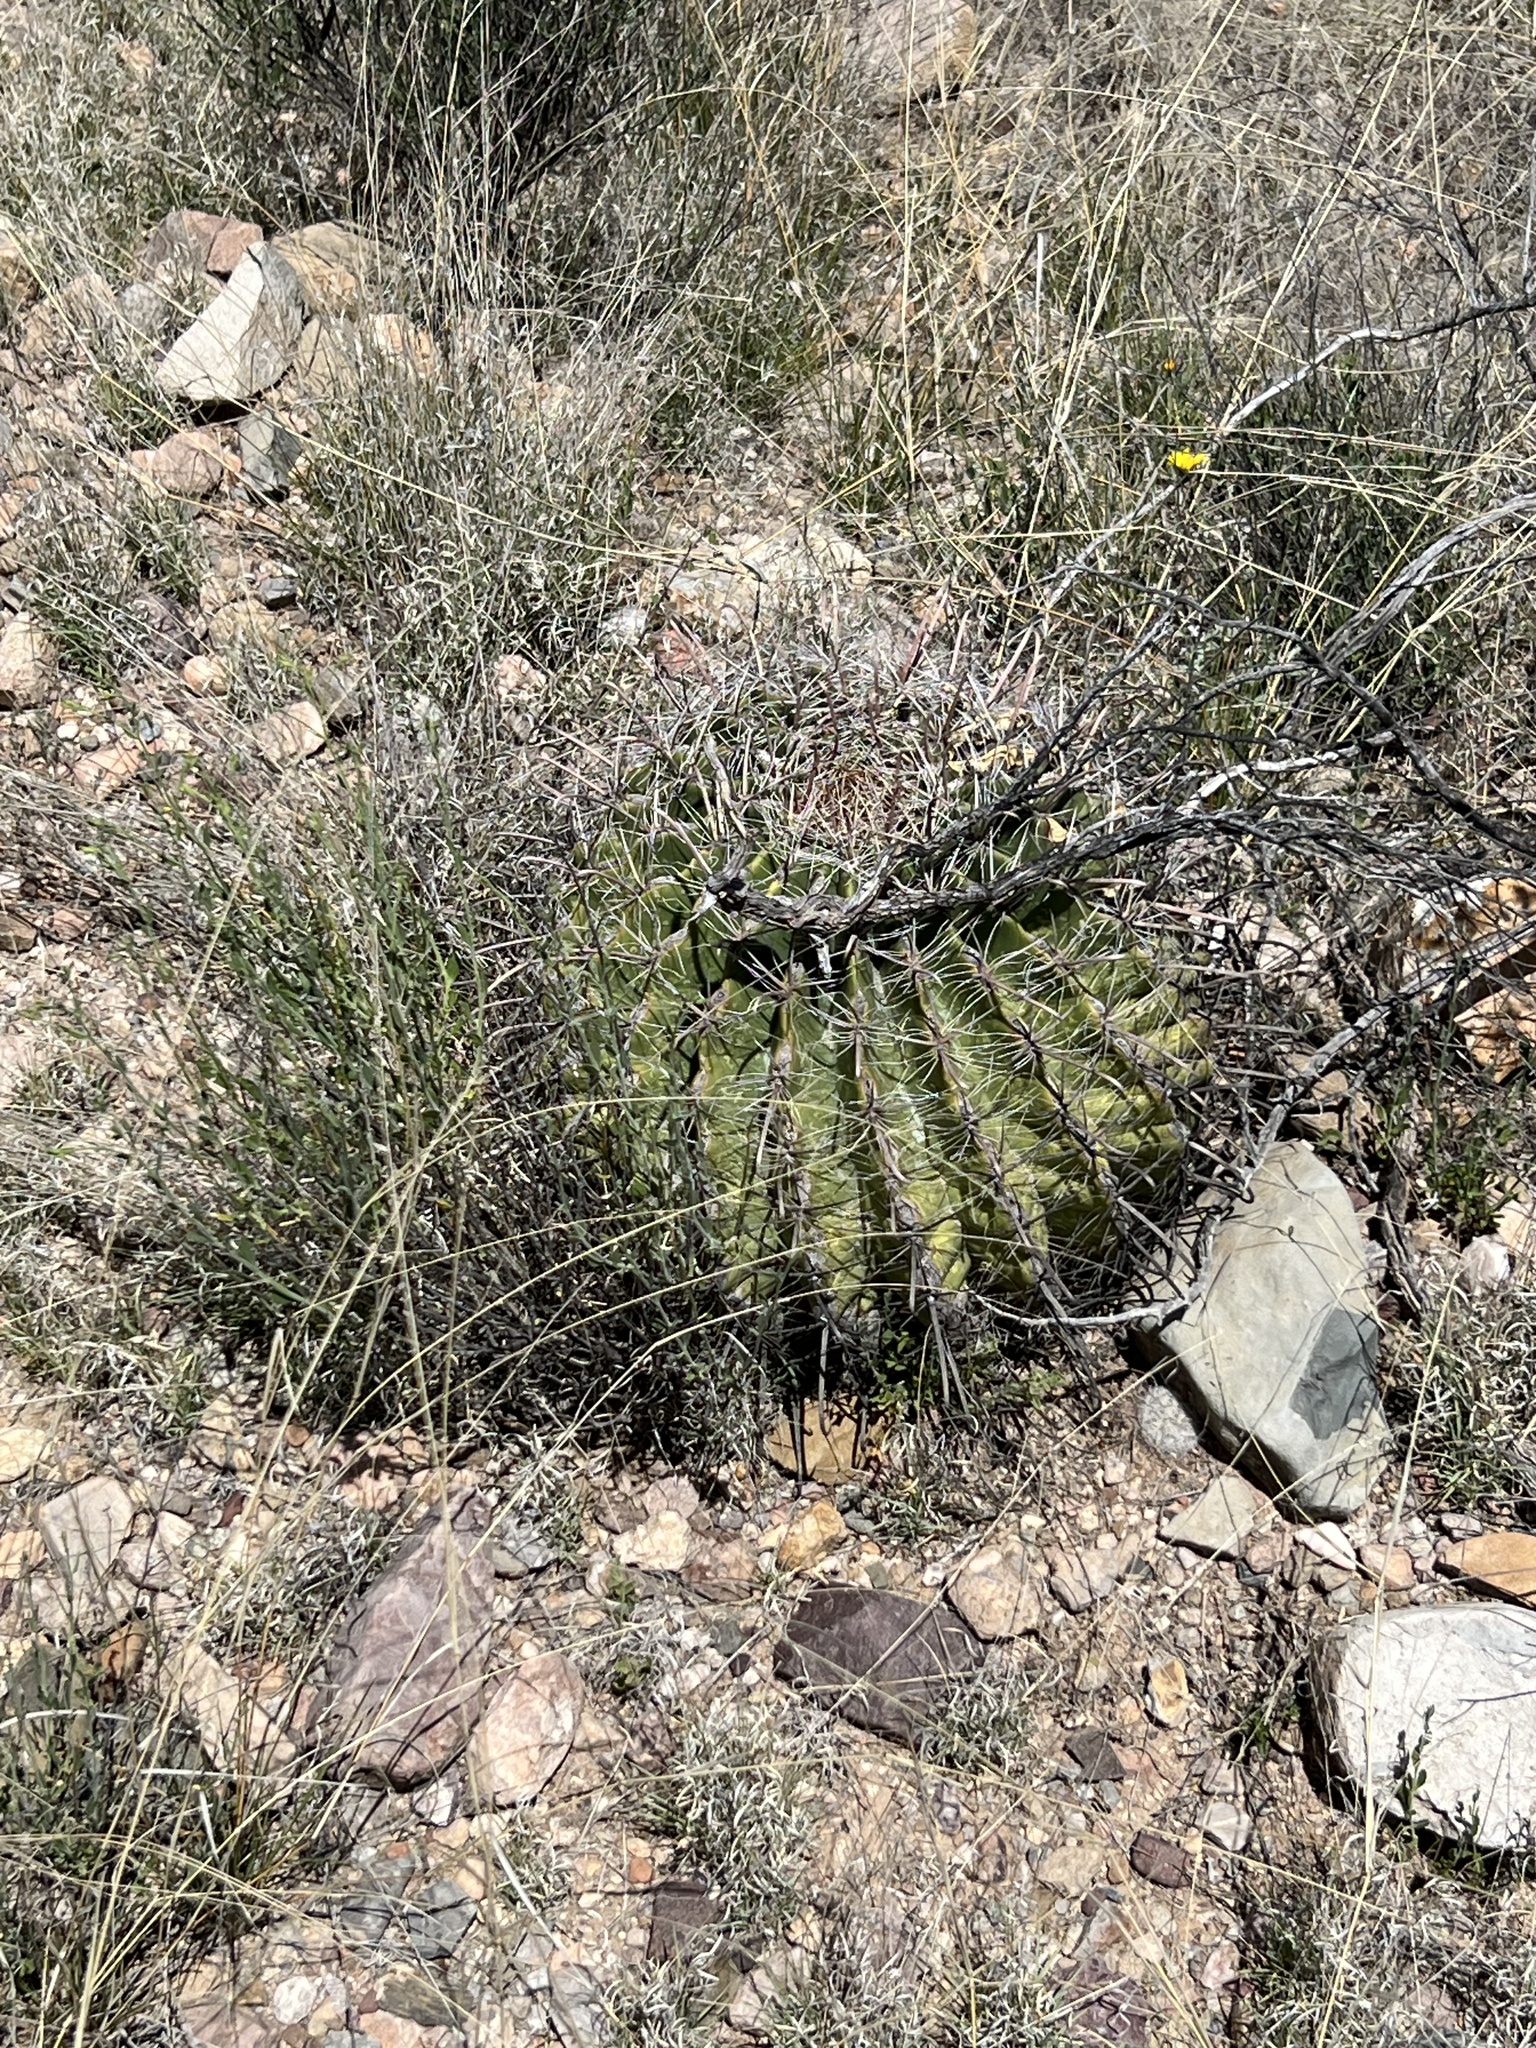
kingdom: Plantae
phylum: Tracheophyta
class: Magnoliopsida
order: Caryophyllales
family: Cactaceae
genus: Ferocactus
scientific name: Ferocactus wislizeni
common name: Candy barrel cactus
